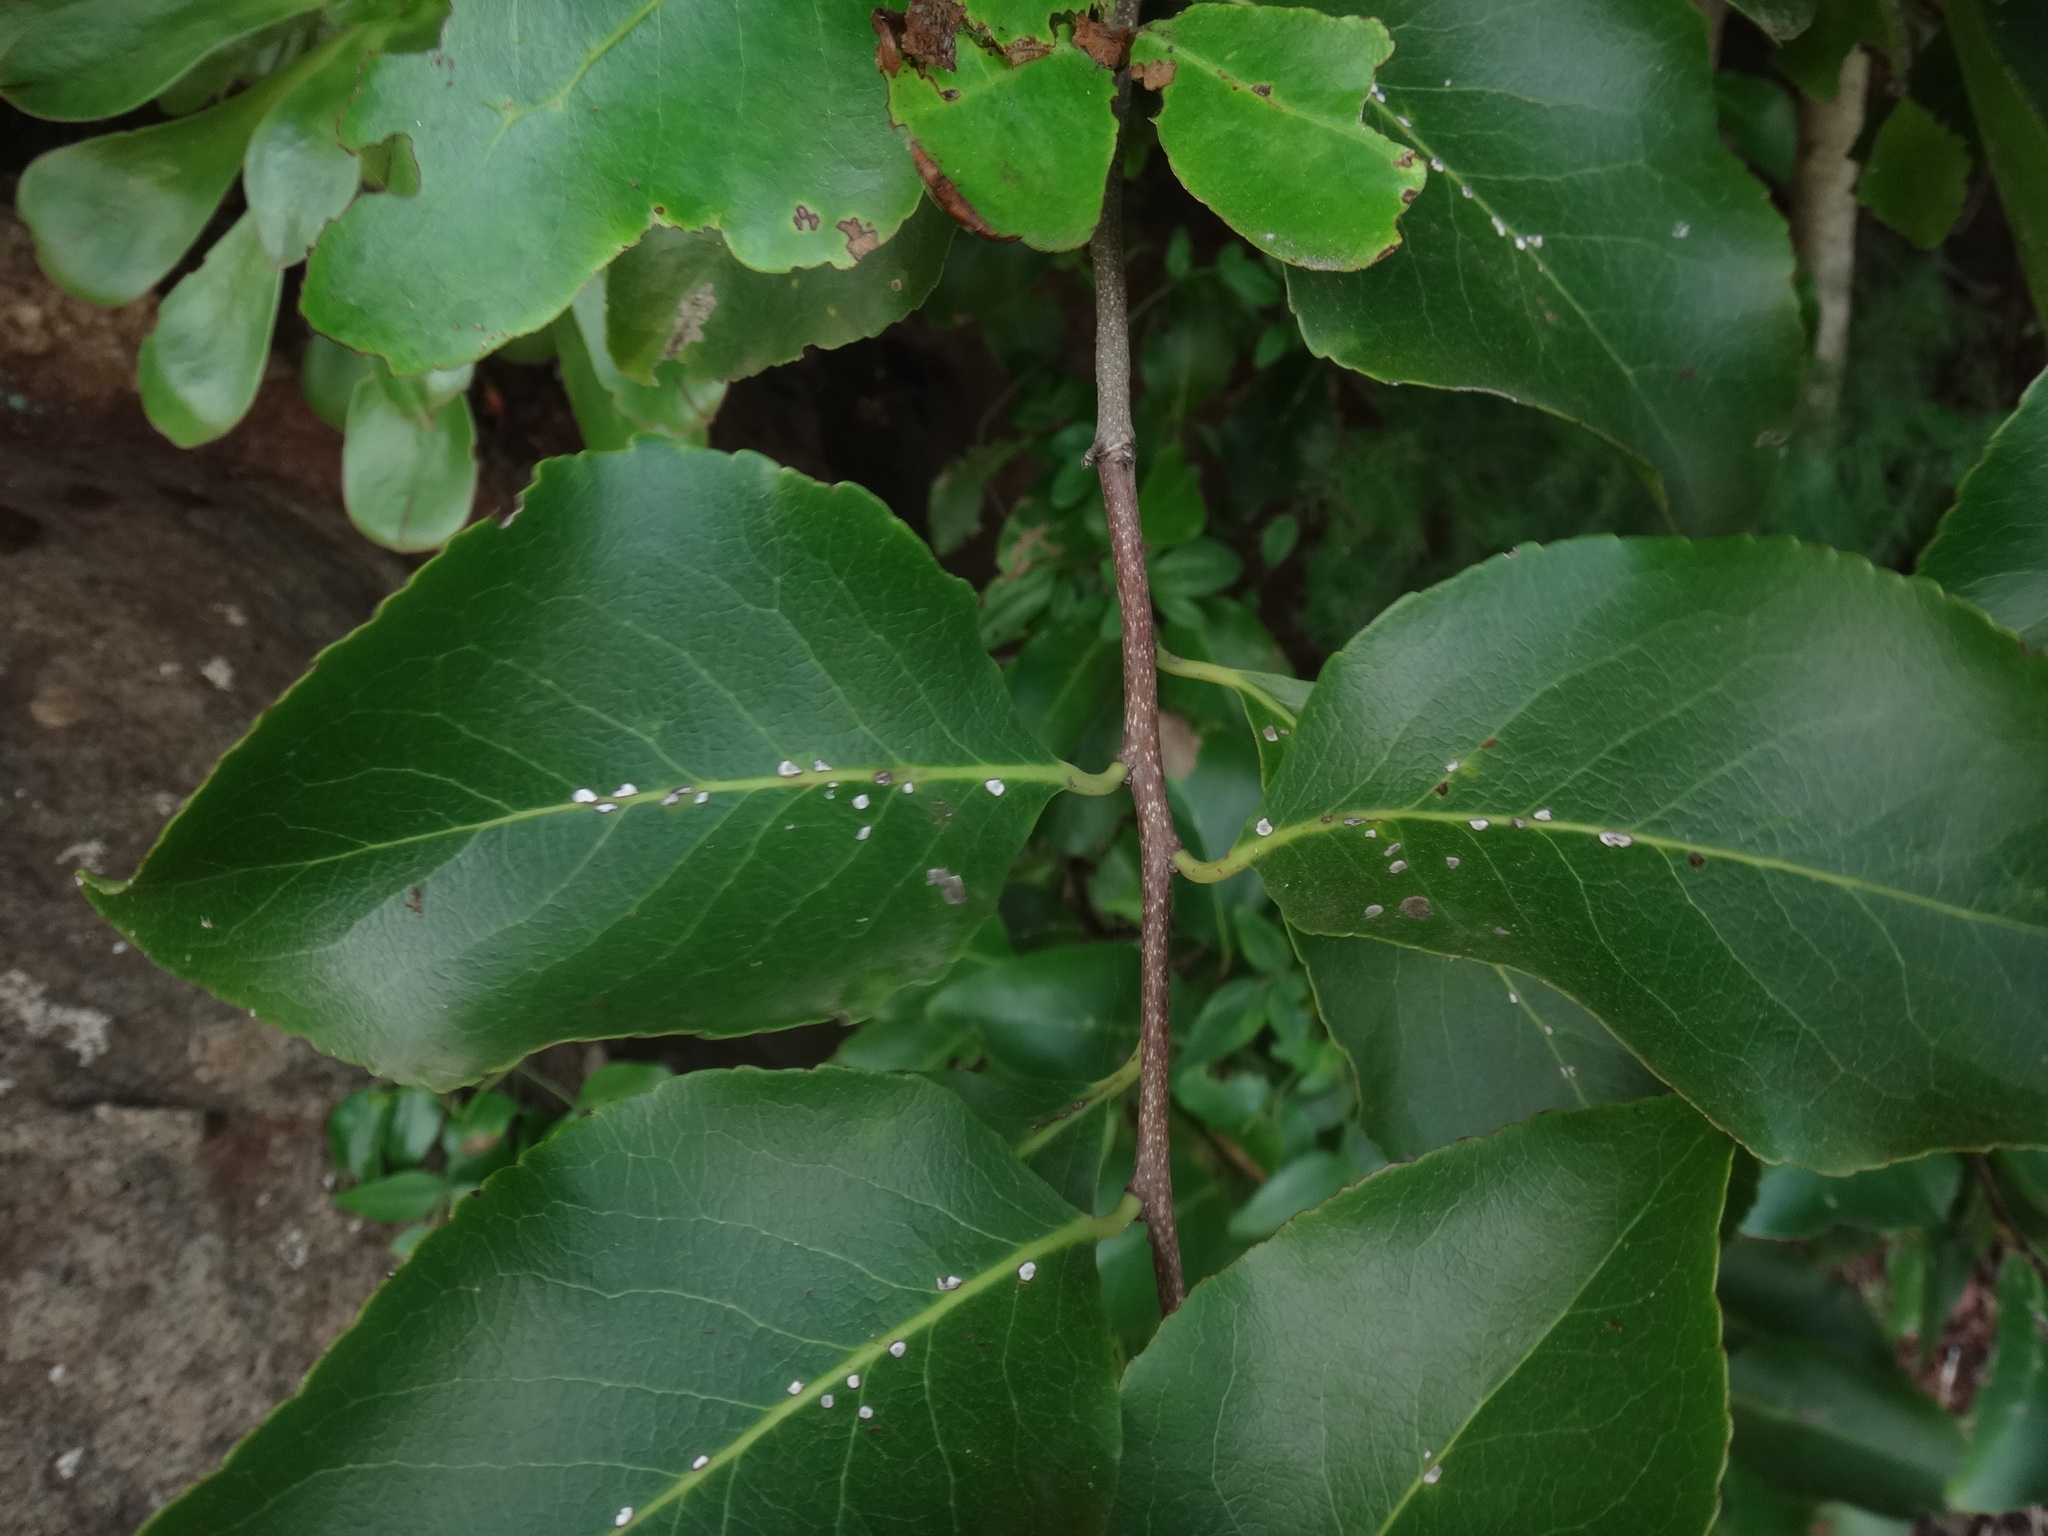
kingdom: Plantae
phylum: Tracheophyta
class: Magnoliopsida
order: Celastrales
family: Celastraceae
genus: Gymnosporia
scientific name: Gymnosporia cassinoides
